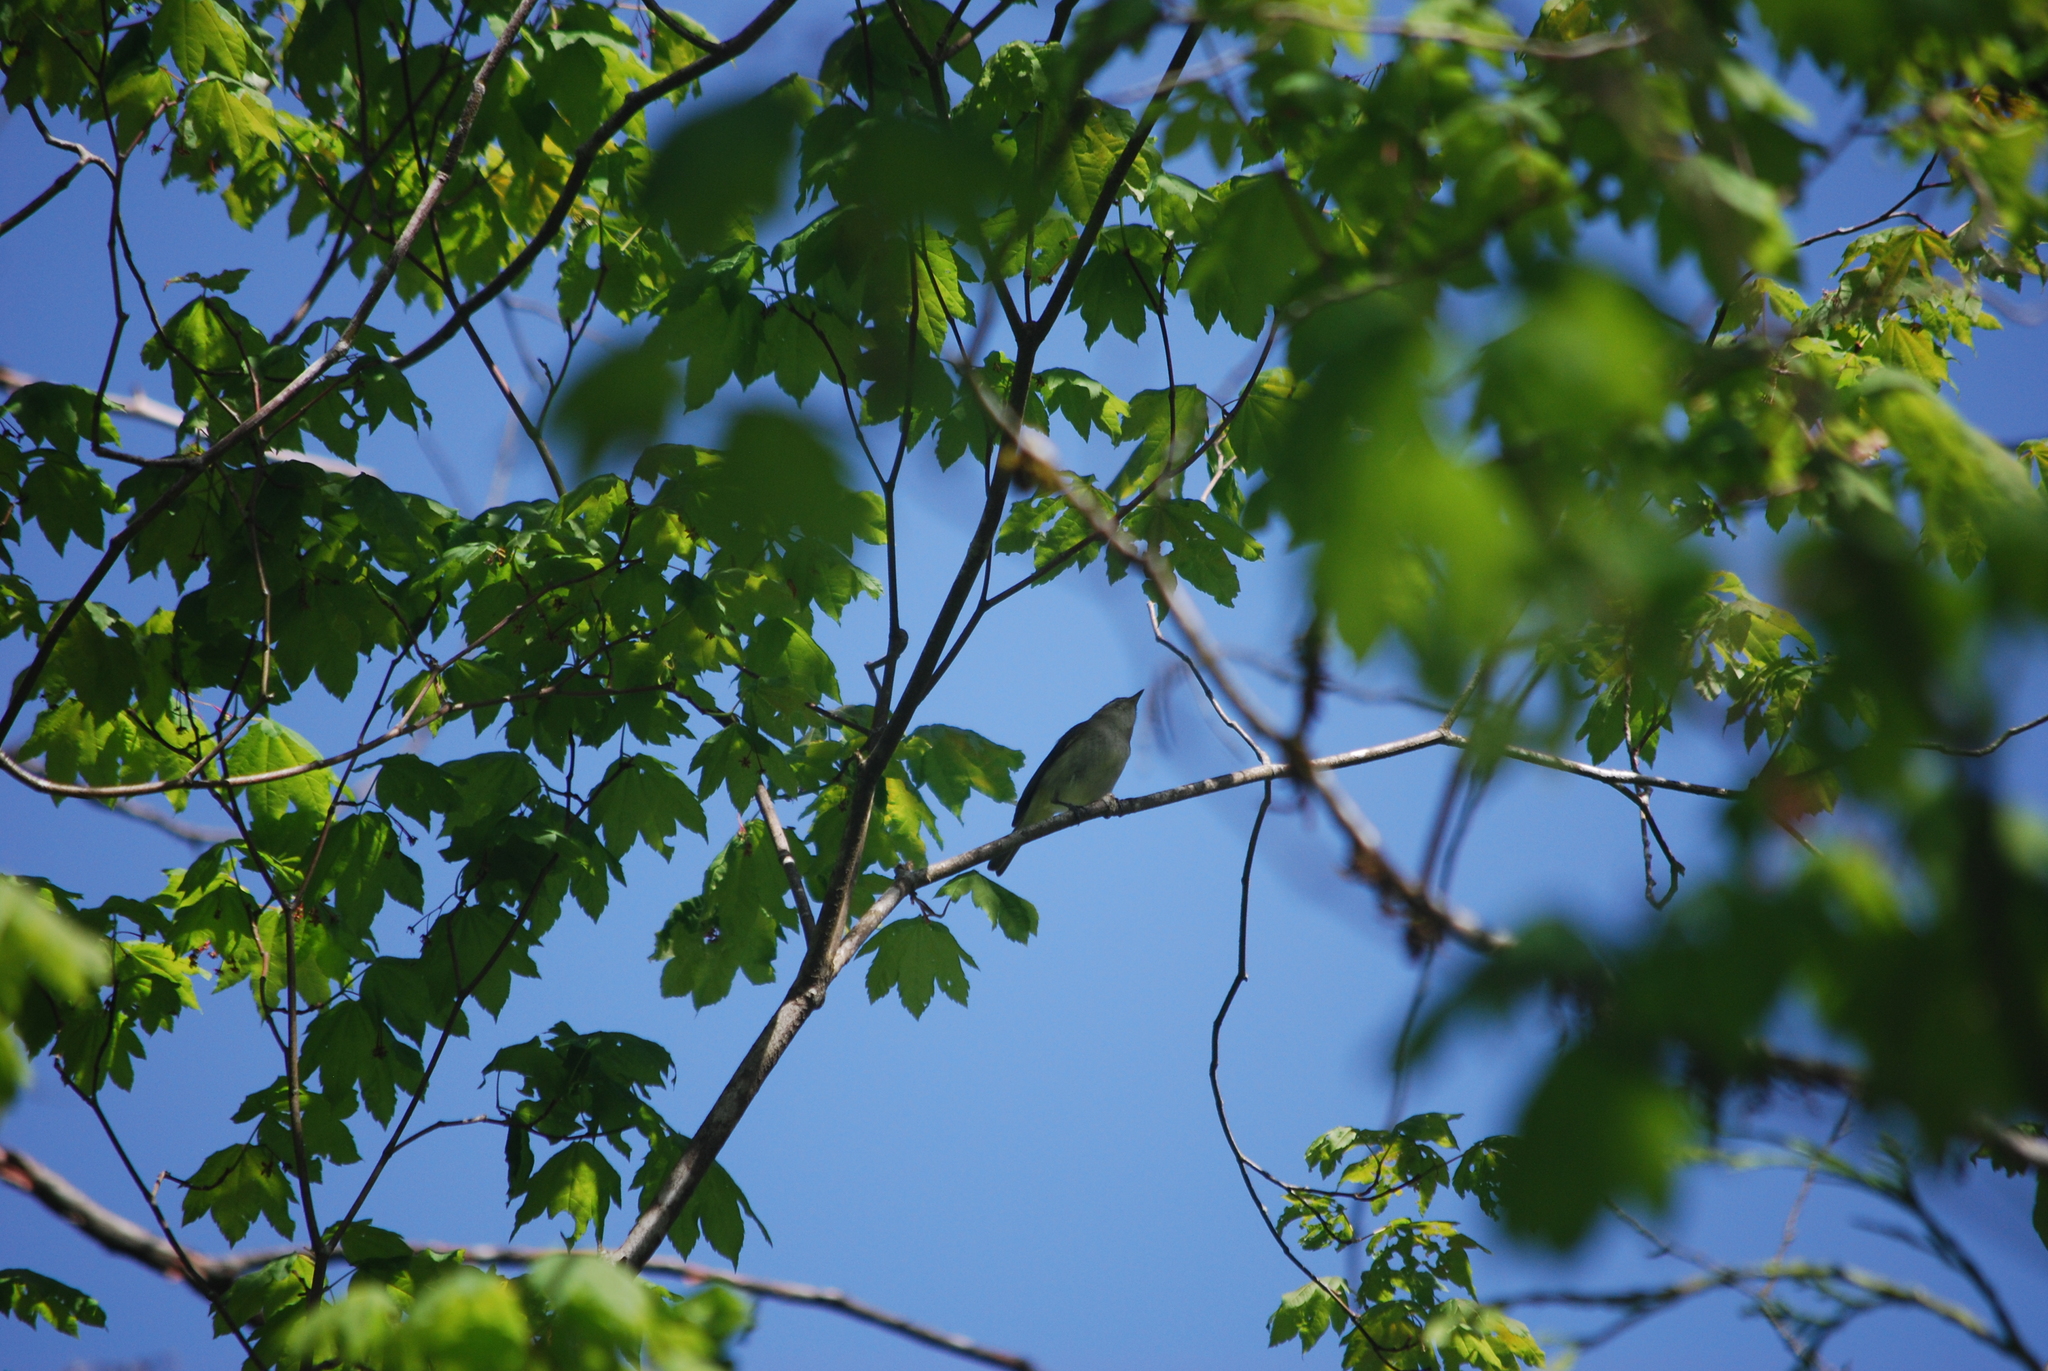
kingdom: Animalia
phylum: Chordata
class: Aves
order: Passeriformes
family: Vireonidae
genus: Vireo
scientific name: Vireo gilvus
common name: Warbling vireo
